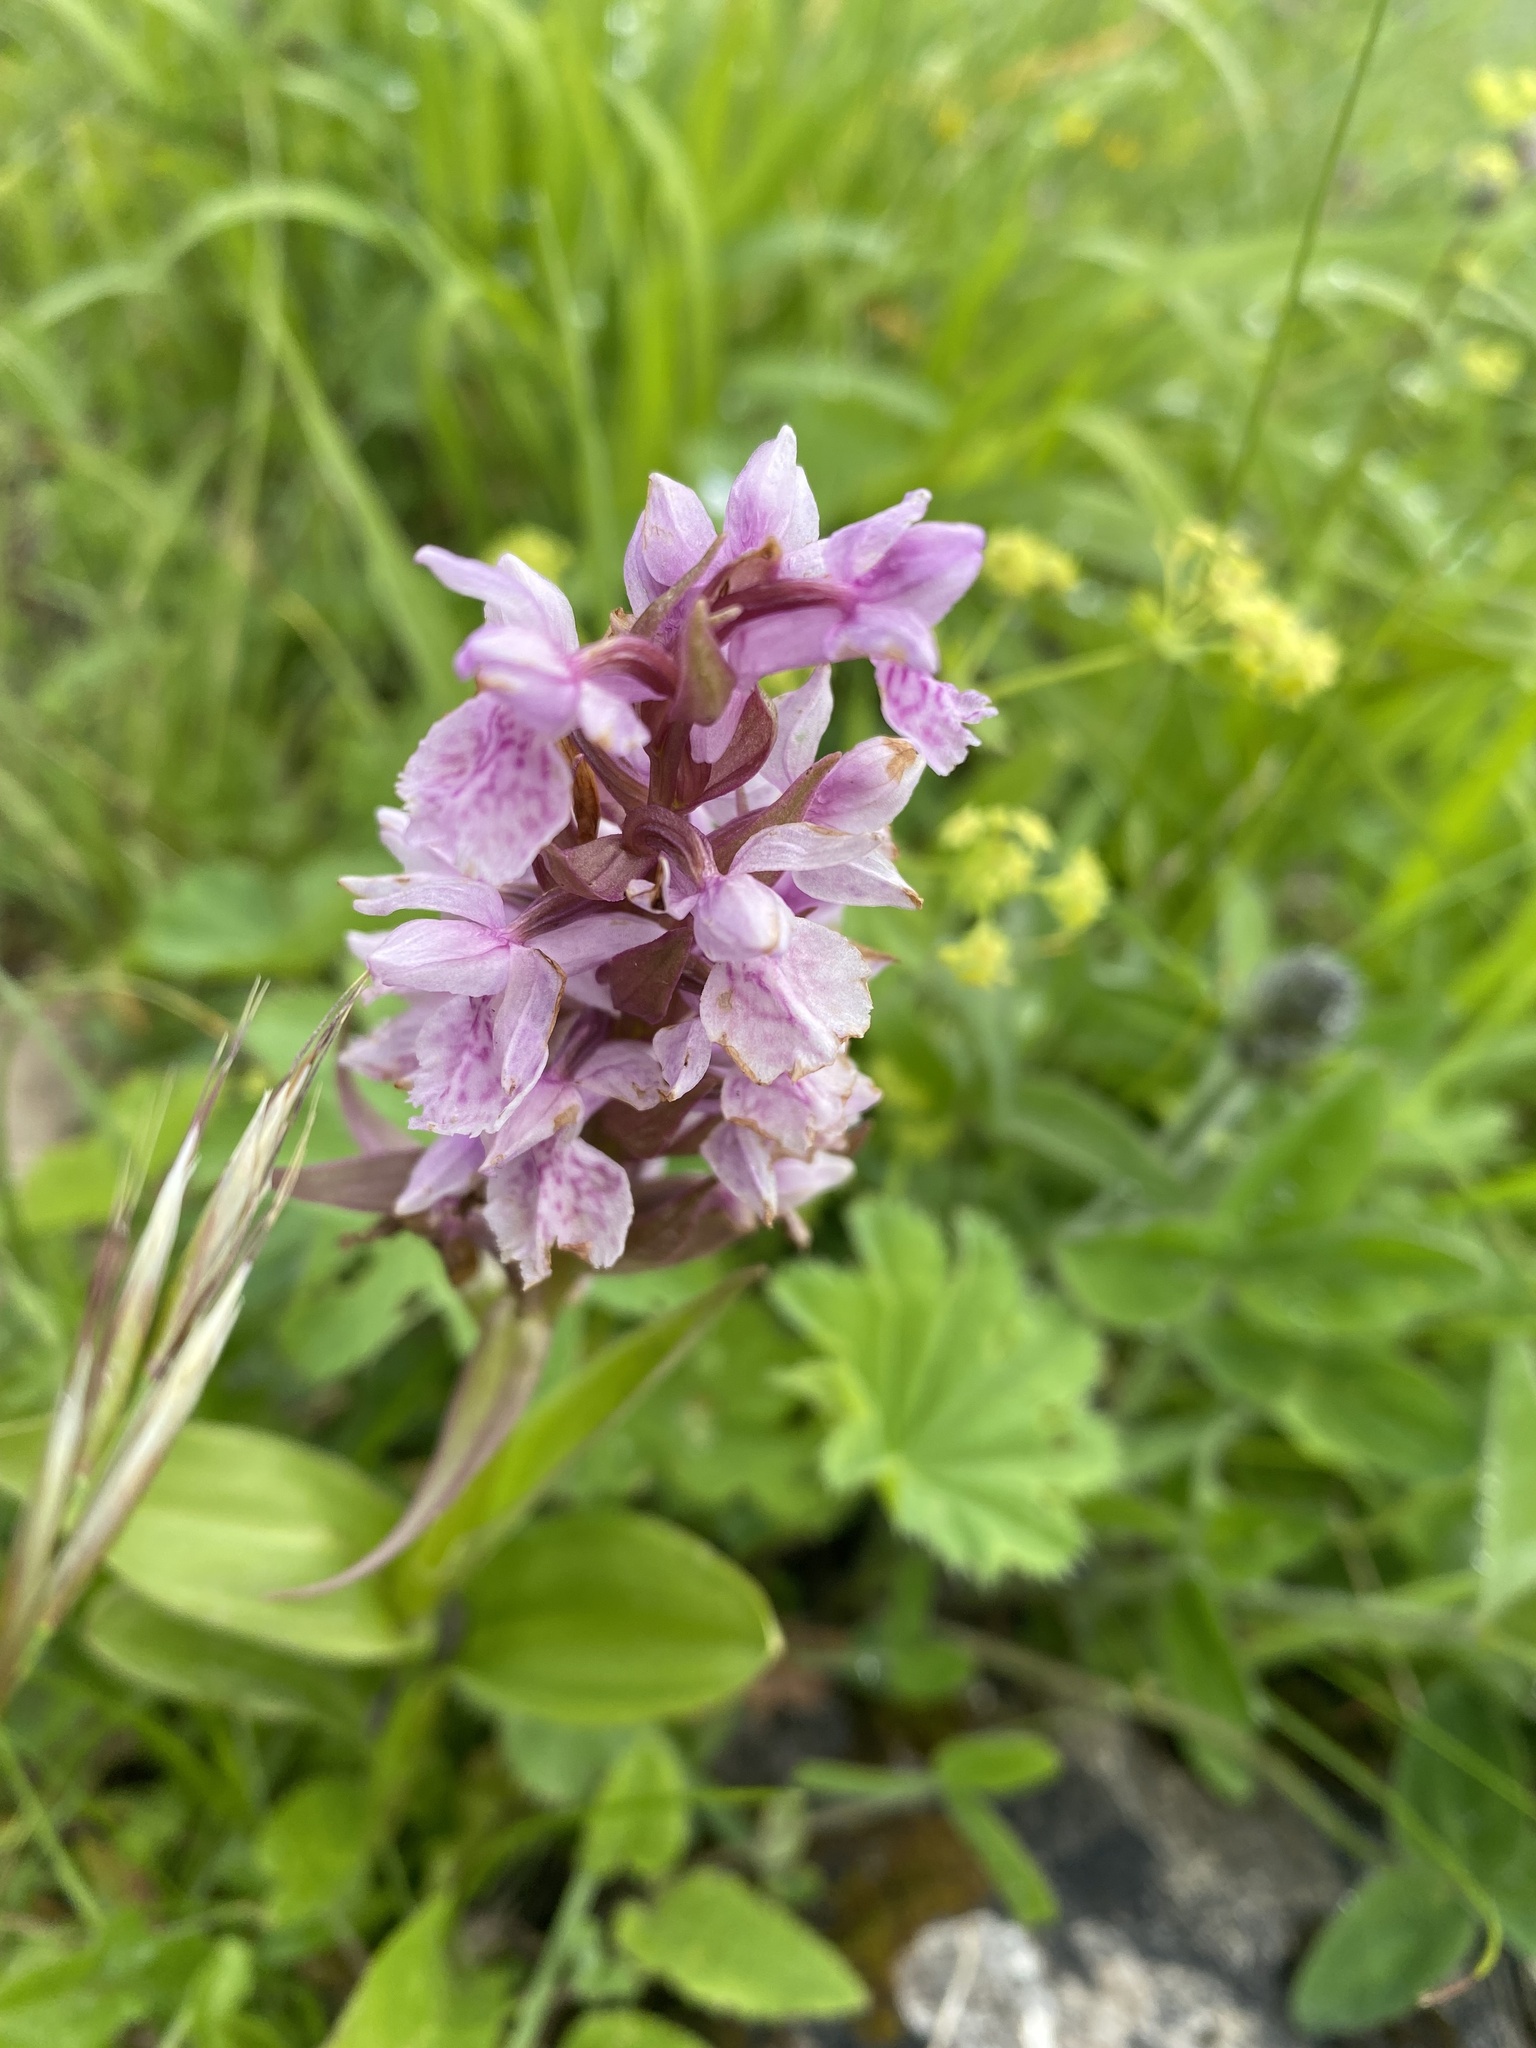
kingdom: Plantae
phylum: Tracheophyta
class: Liliopsida
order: Asparagales
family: Orchidaceae
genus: Dactylorhiza
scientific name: Dactylorhiza euxina
